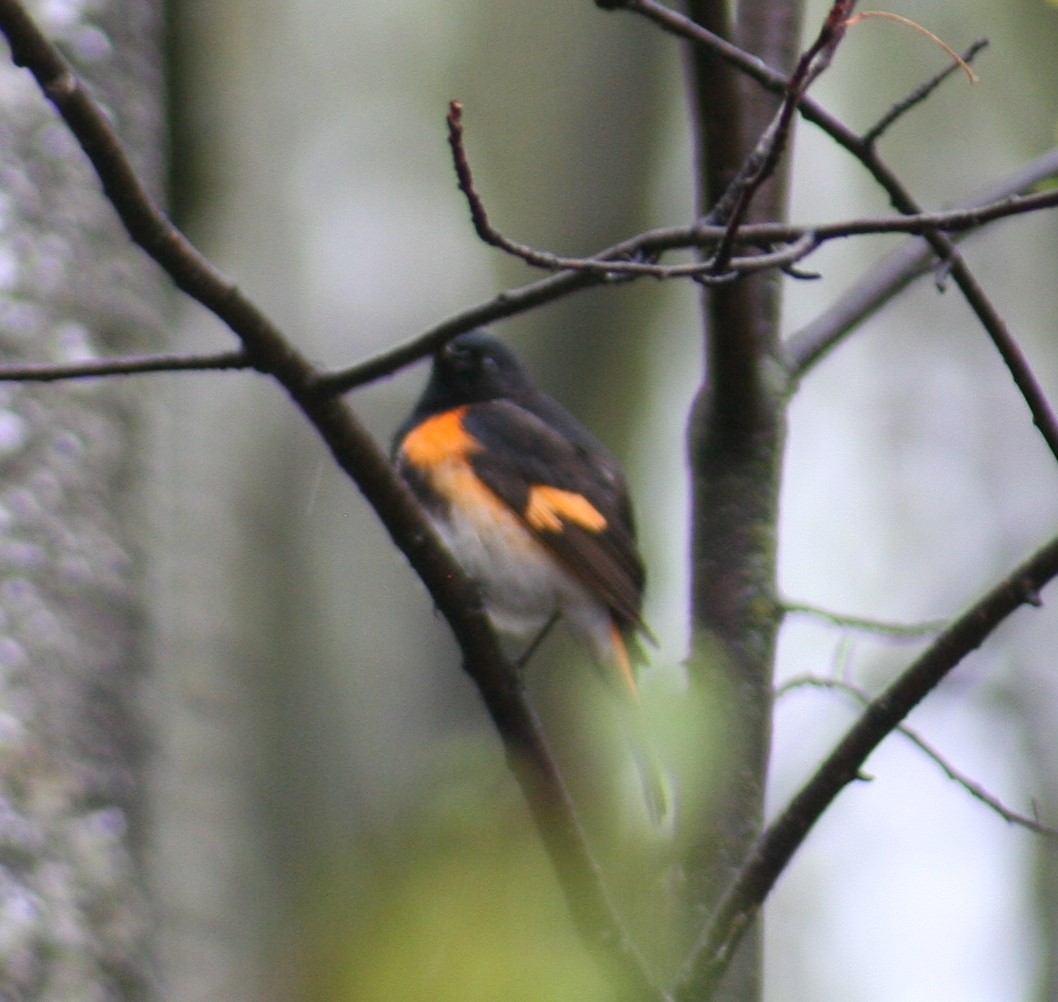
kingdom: Animalia
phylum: Chordata
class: Aves
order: Passeriformes
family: Parulidae
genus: Setophaga
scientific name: Setophaga ruticilla
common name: American redstart
